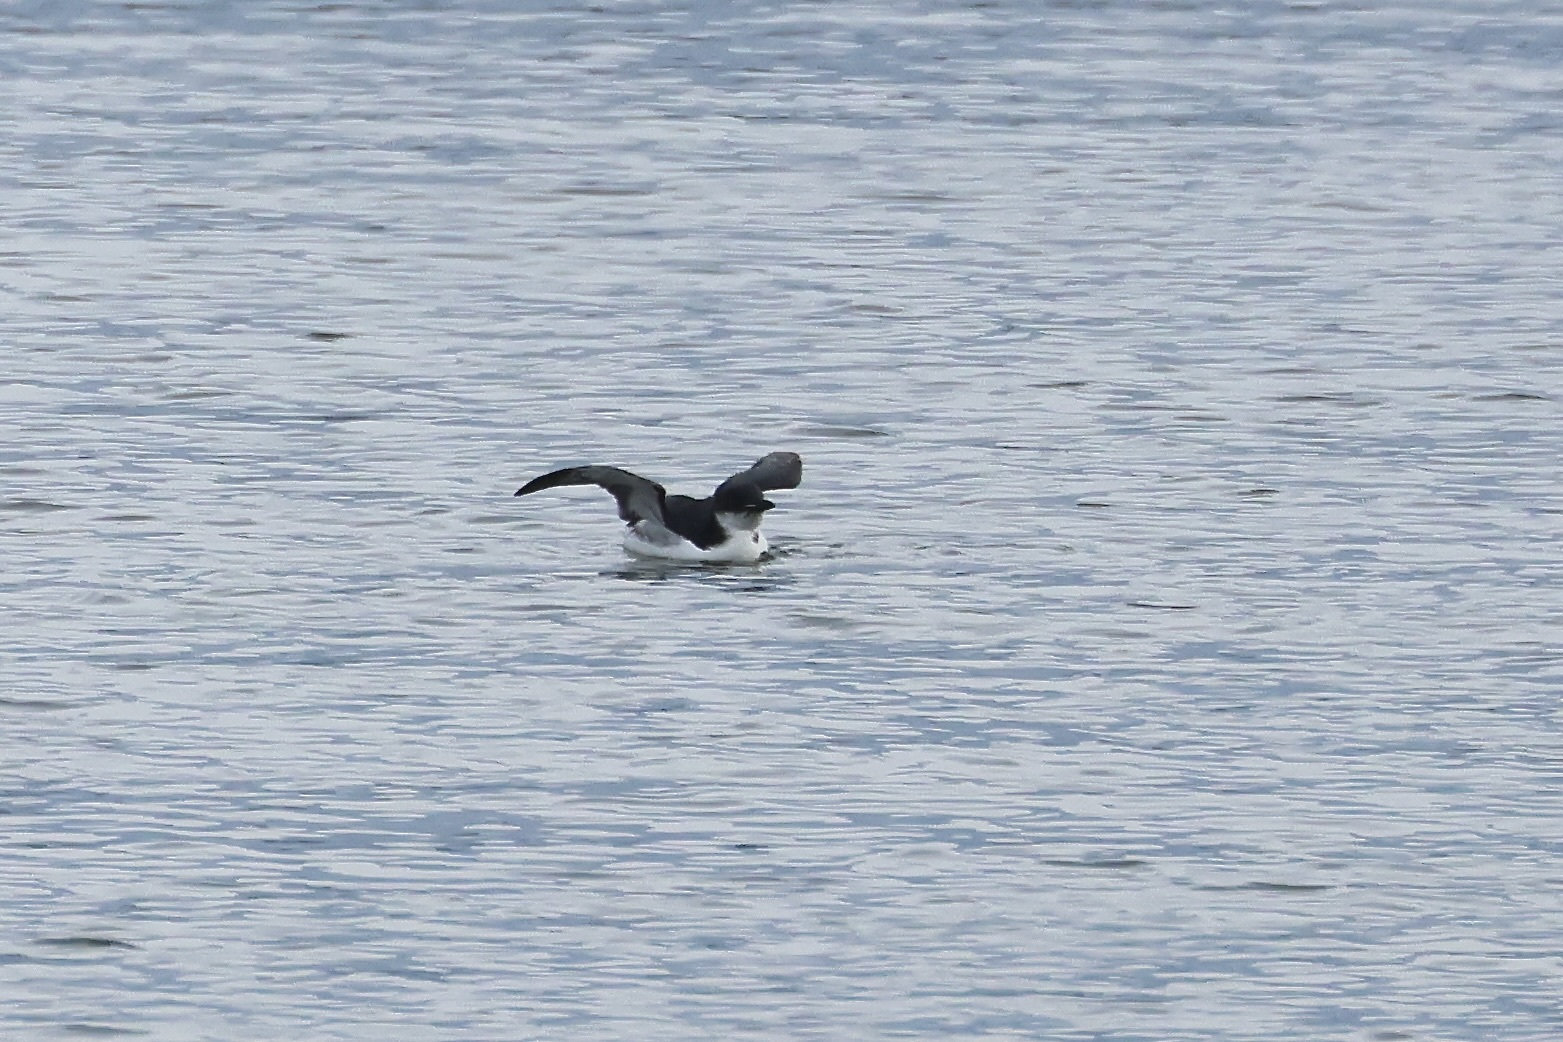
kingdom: Animalia
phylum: Chordata
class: Aves
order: Charadriiformes
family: Alcidae
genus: Uria
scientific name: Uria lomvia
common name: Thick-billed murre
